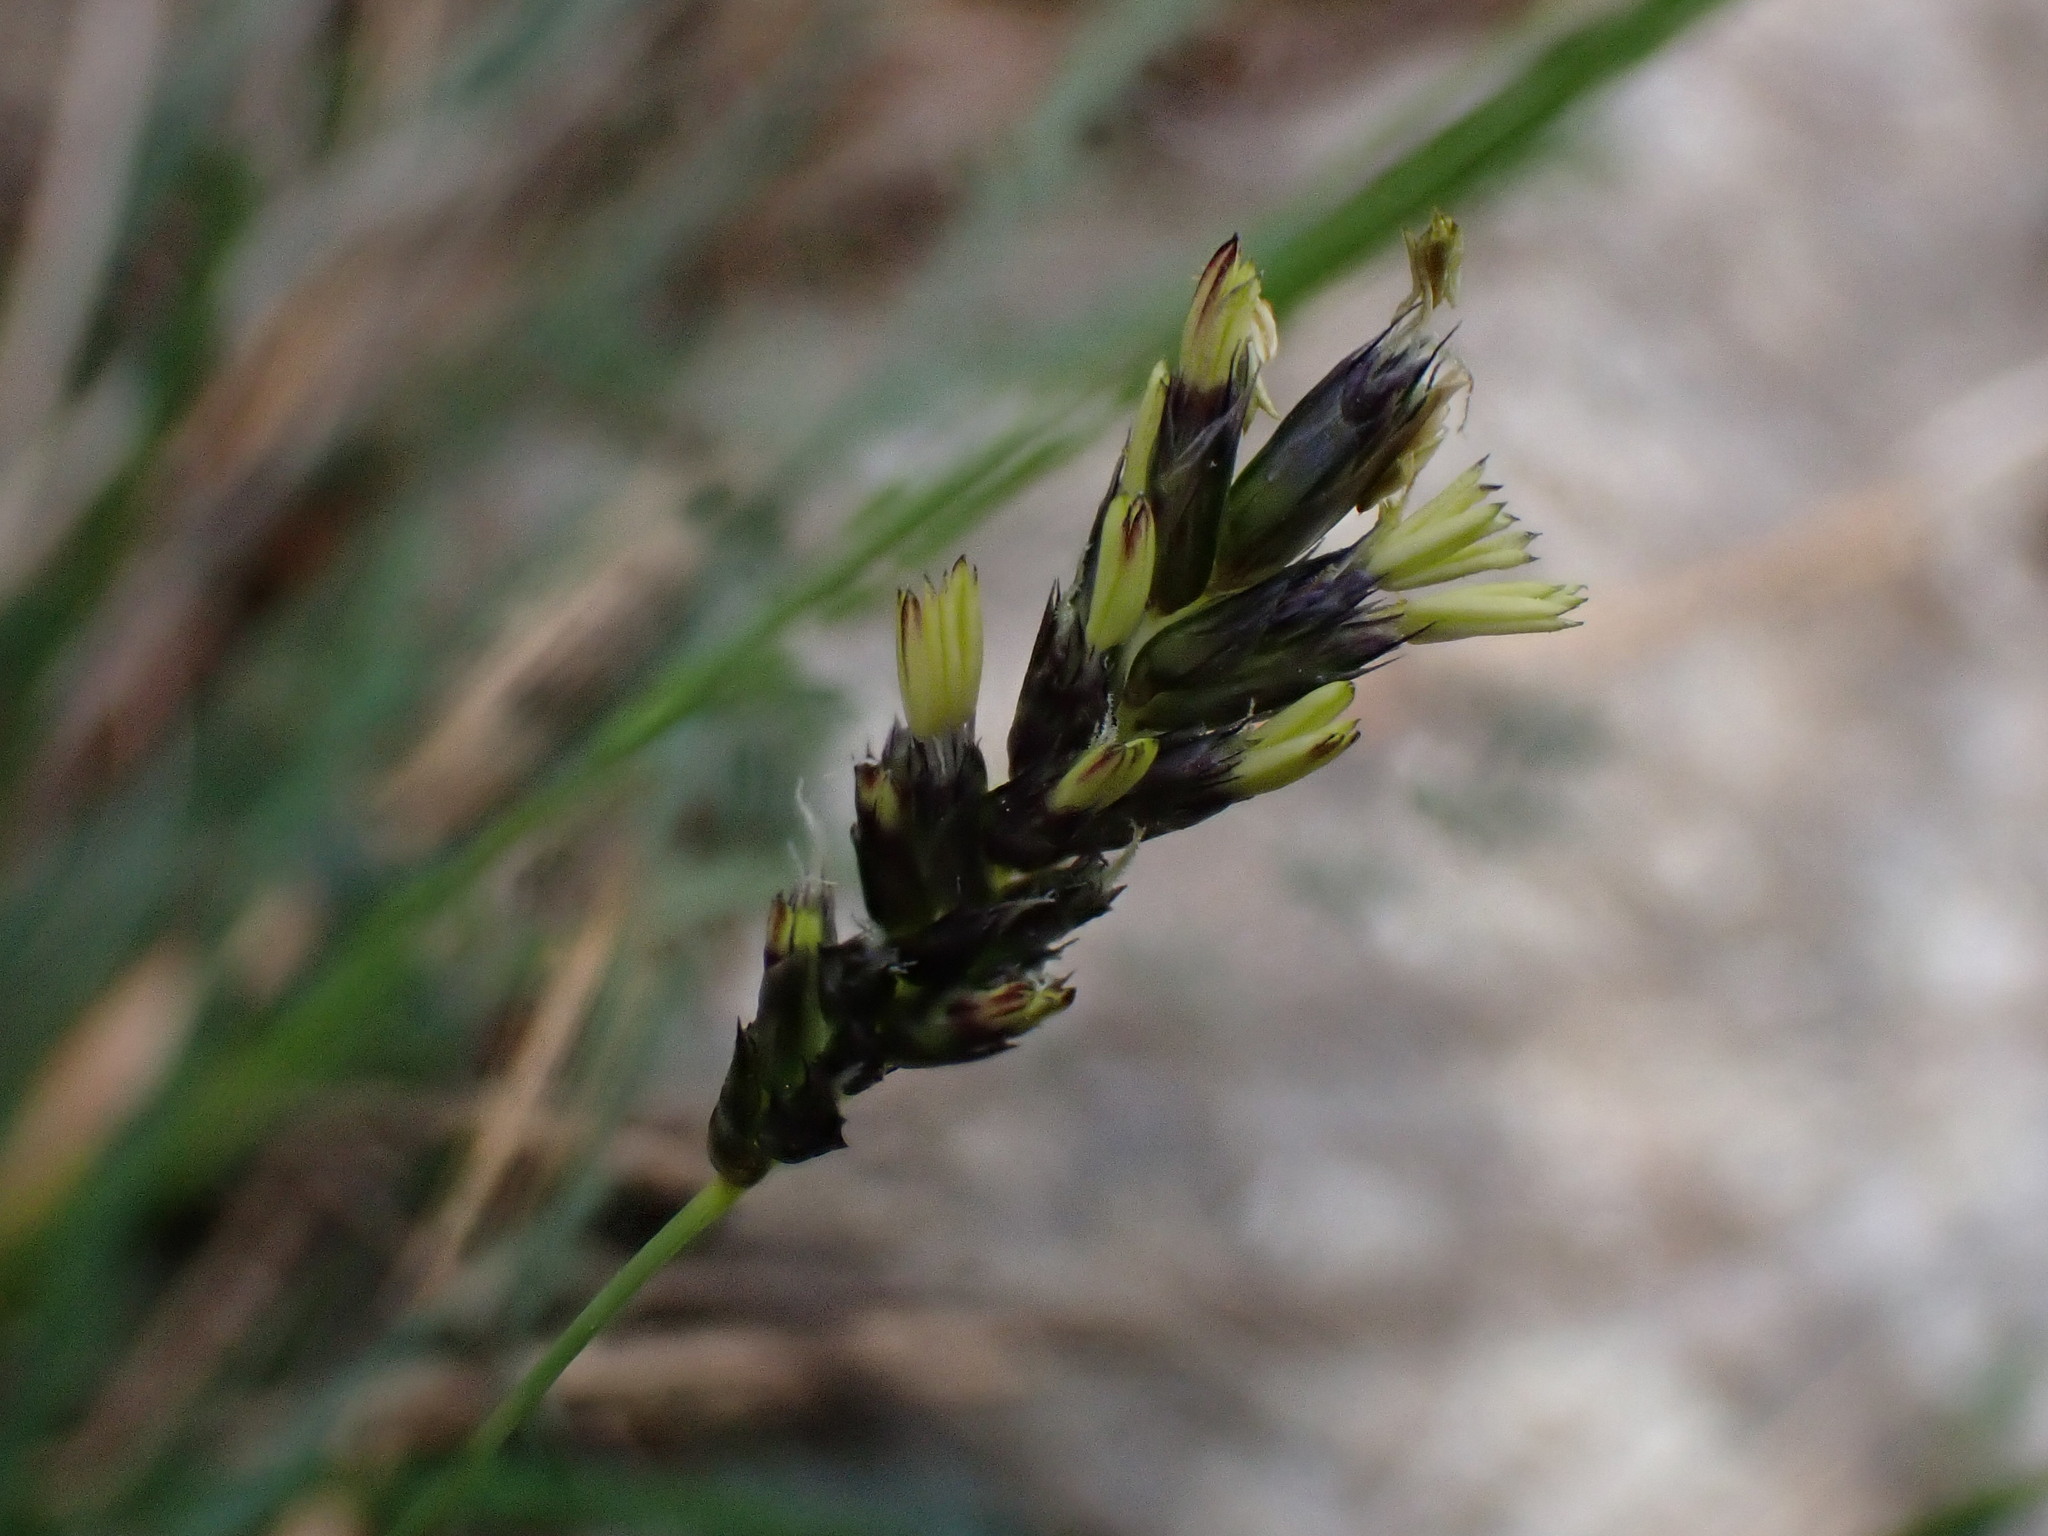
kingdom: Plantae
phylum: Tracheophyta
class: Liliopsida
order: Poales
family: Poaceae
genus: Sesleria
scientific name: Sesleria caerulea
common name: Blue moor-grass
